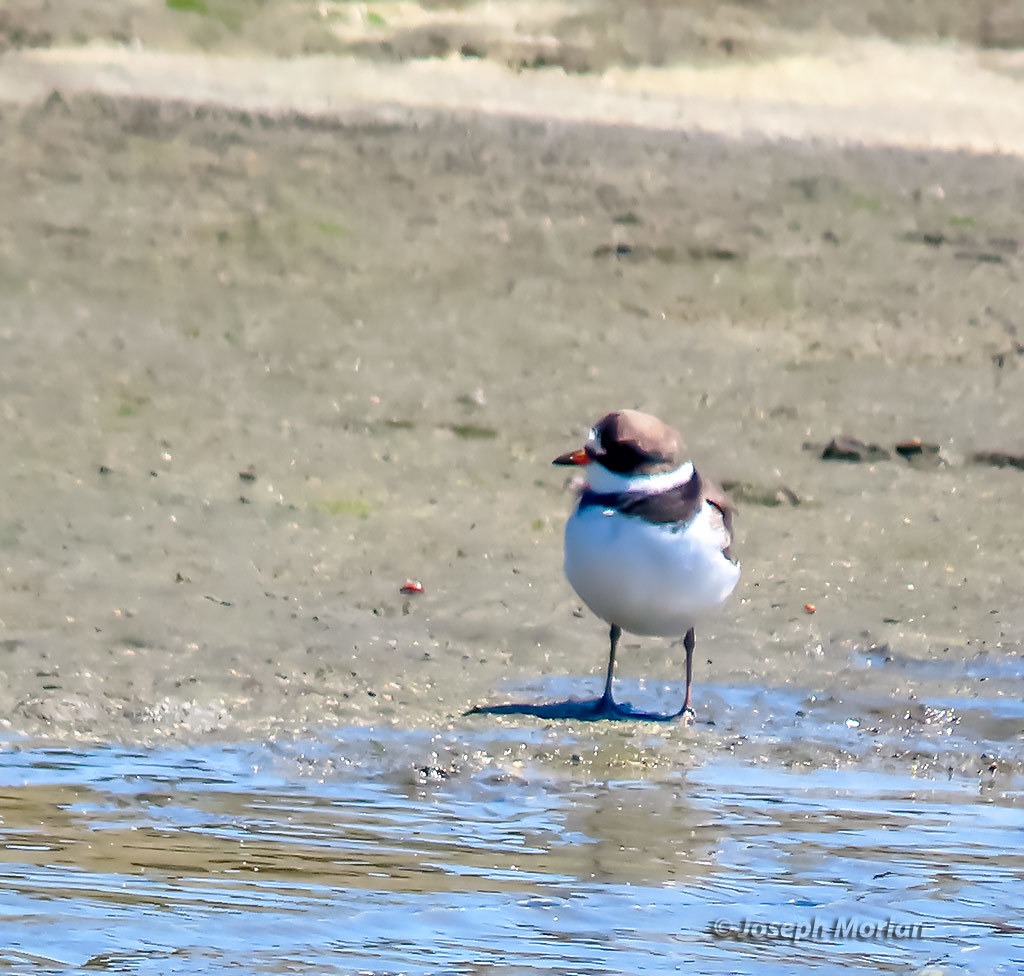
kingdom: Animalia
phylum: Chordata
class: Aves
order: Charadriiformes
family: Charadriidae
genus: Charadrius
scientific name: Charadrius semipalmatus
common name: Semipalmated plover
